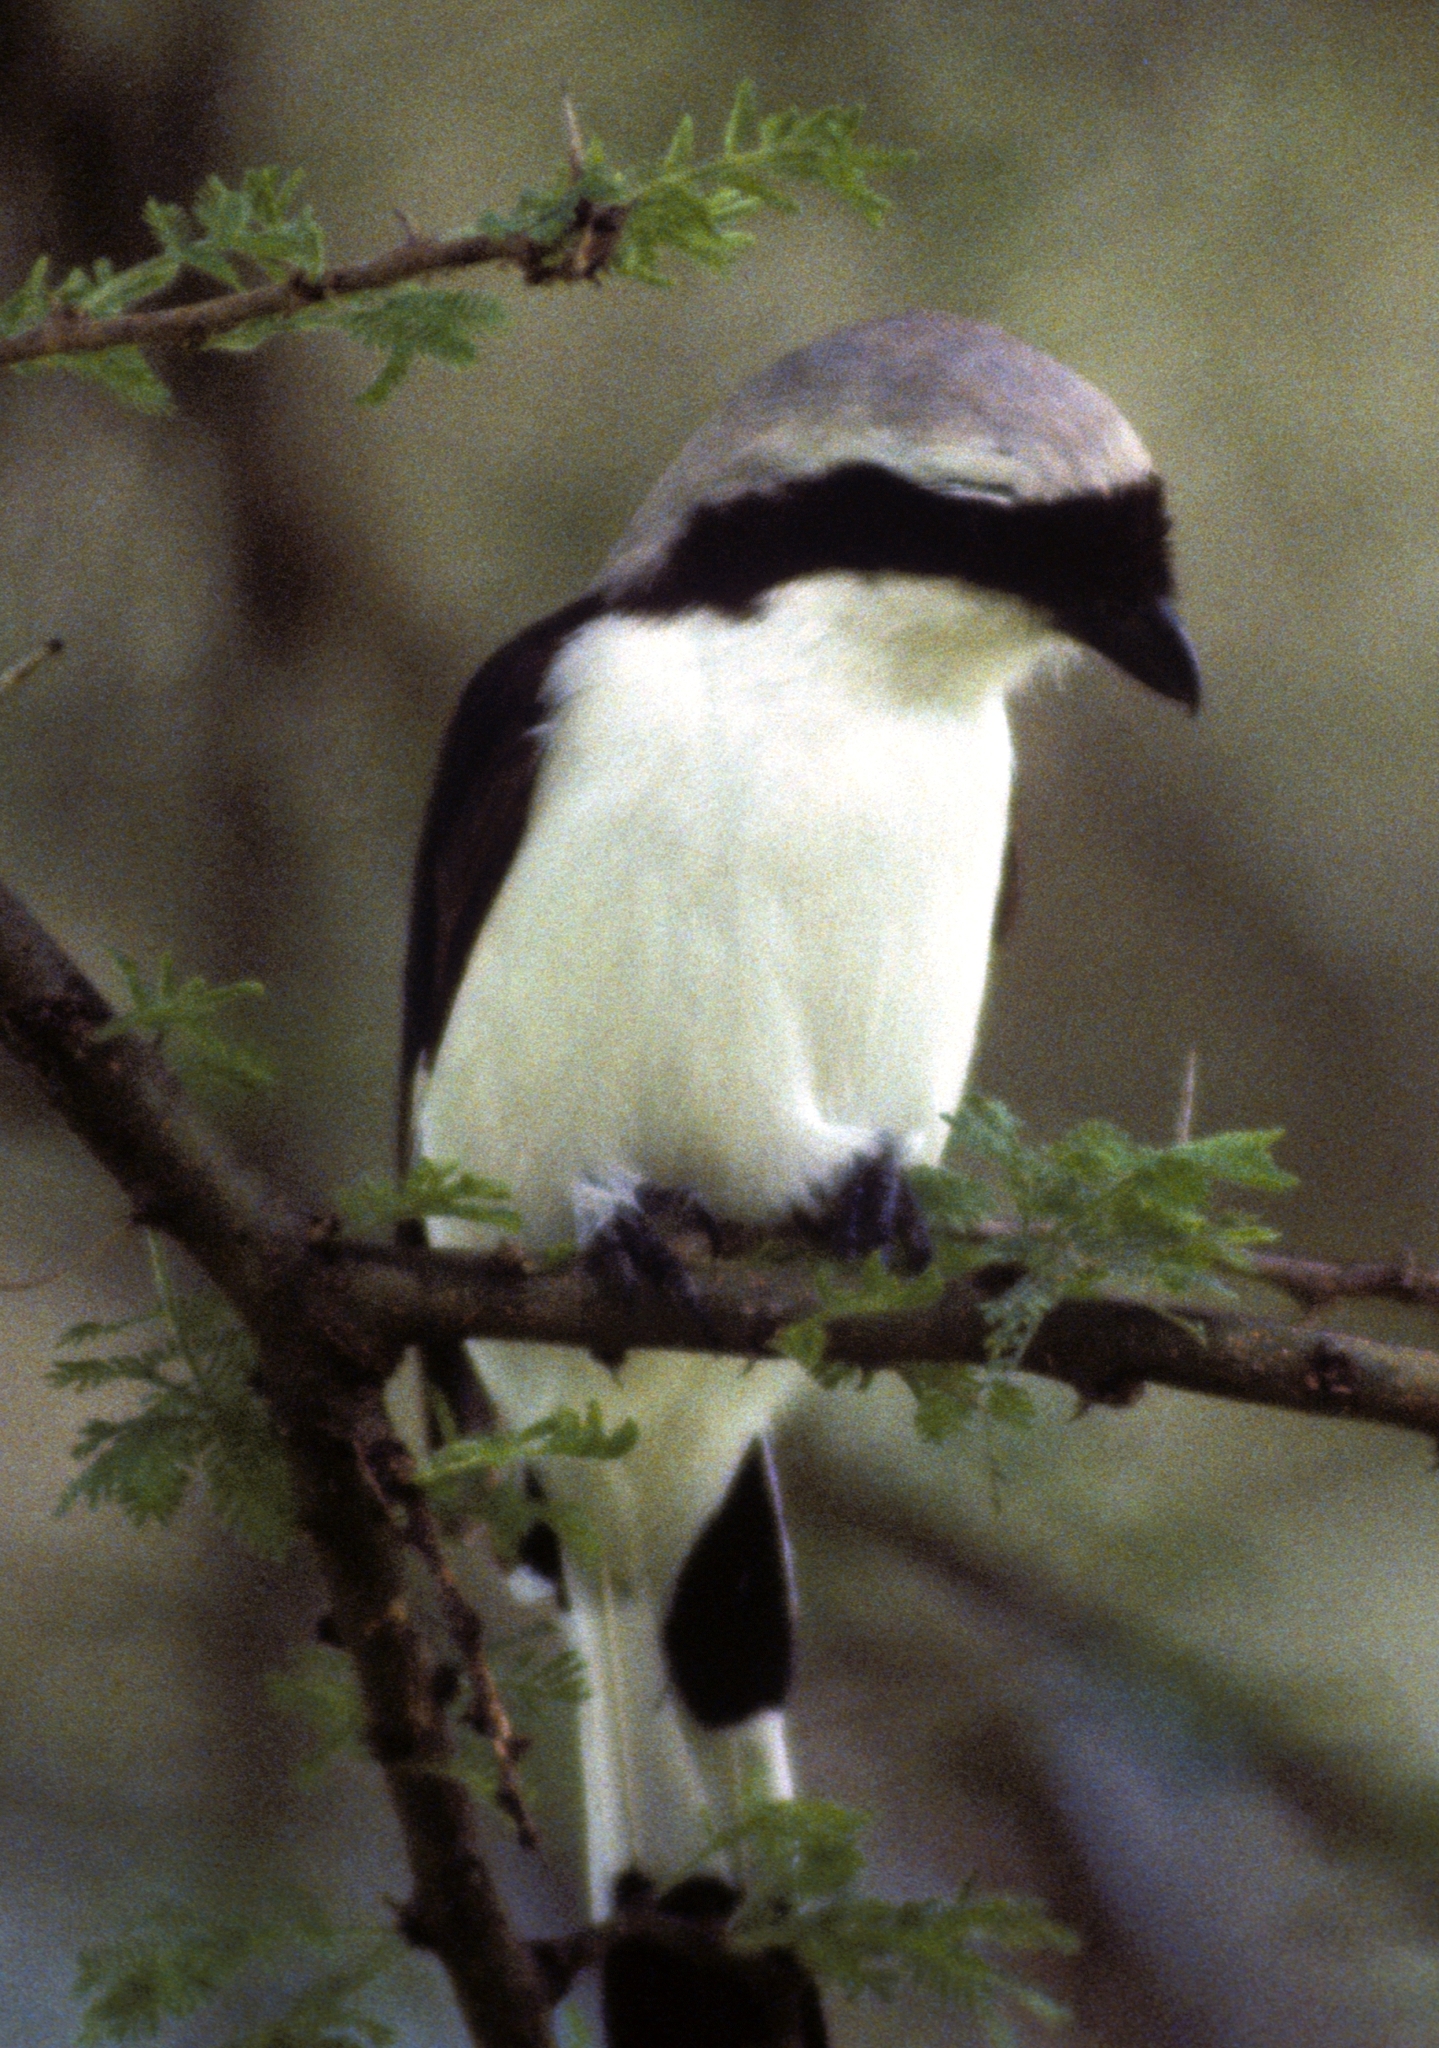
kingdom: Animalia
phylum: Chordata
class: Aves
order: Passeriformes
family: Laniidae
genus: Lanius
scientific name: Lanius excubitoroides
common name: Grey-backed fiscal
